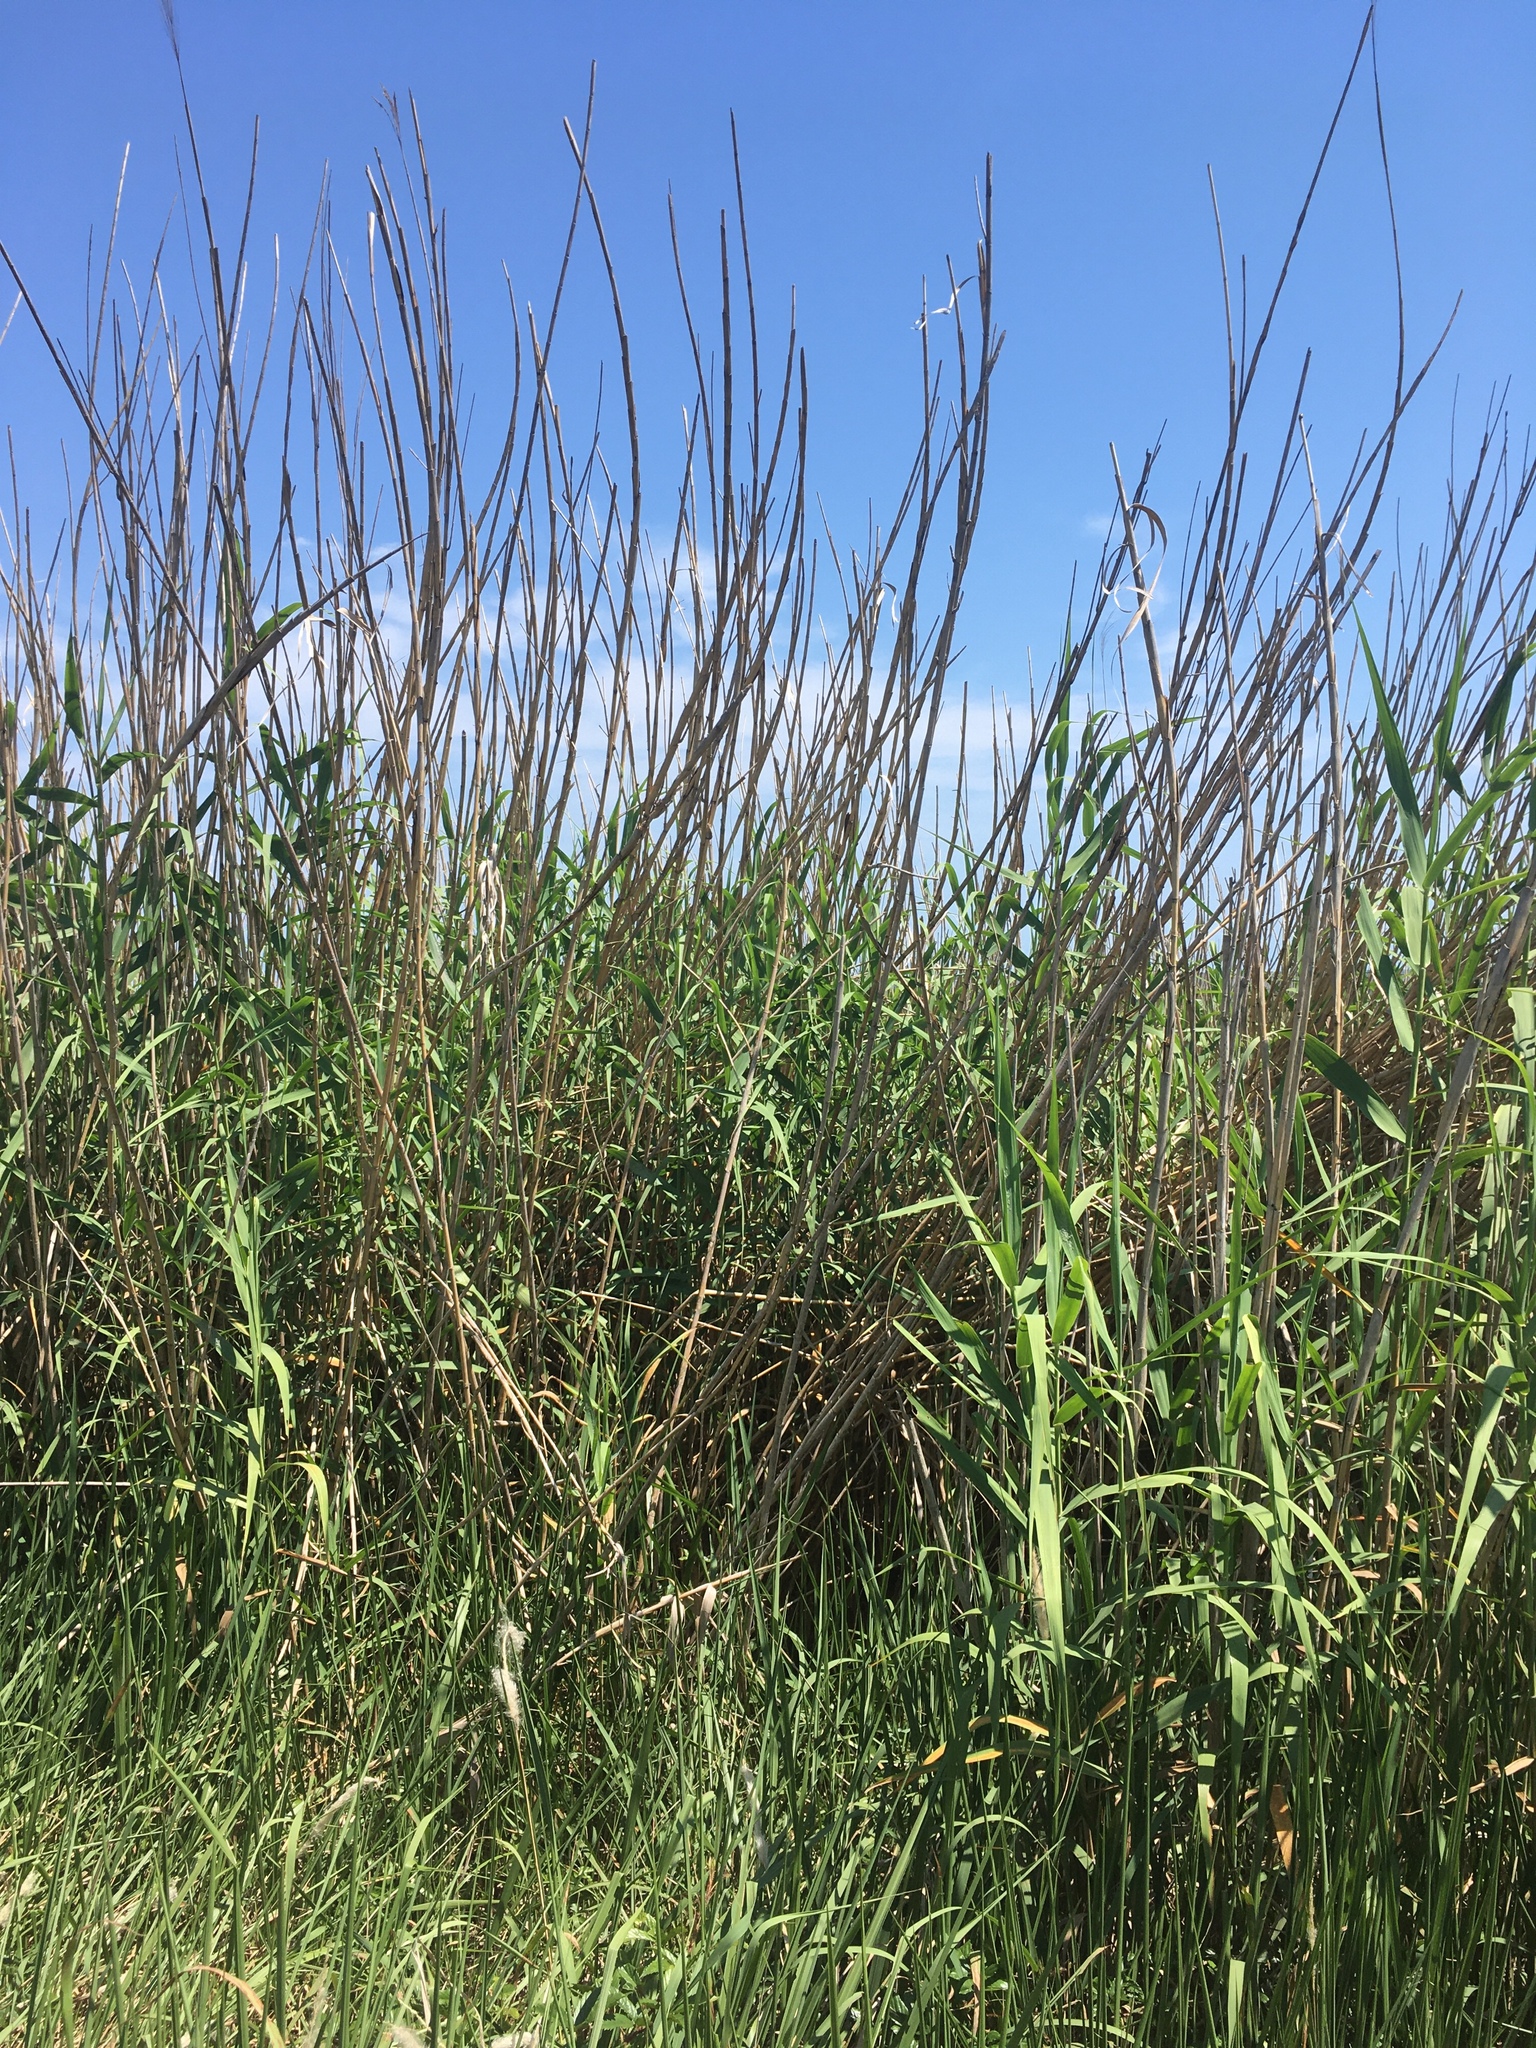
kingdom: Plantae
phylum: Tracheophyta
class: Liliopsida
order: Poales
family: Poaceae
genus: Phragmites
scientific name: Phragmites australis
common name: Common reed
